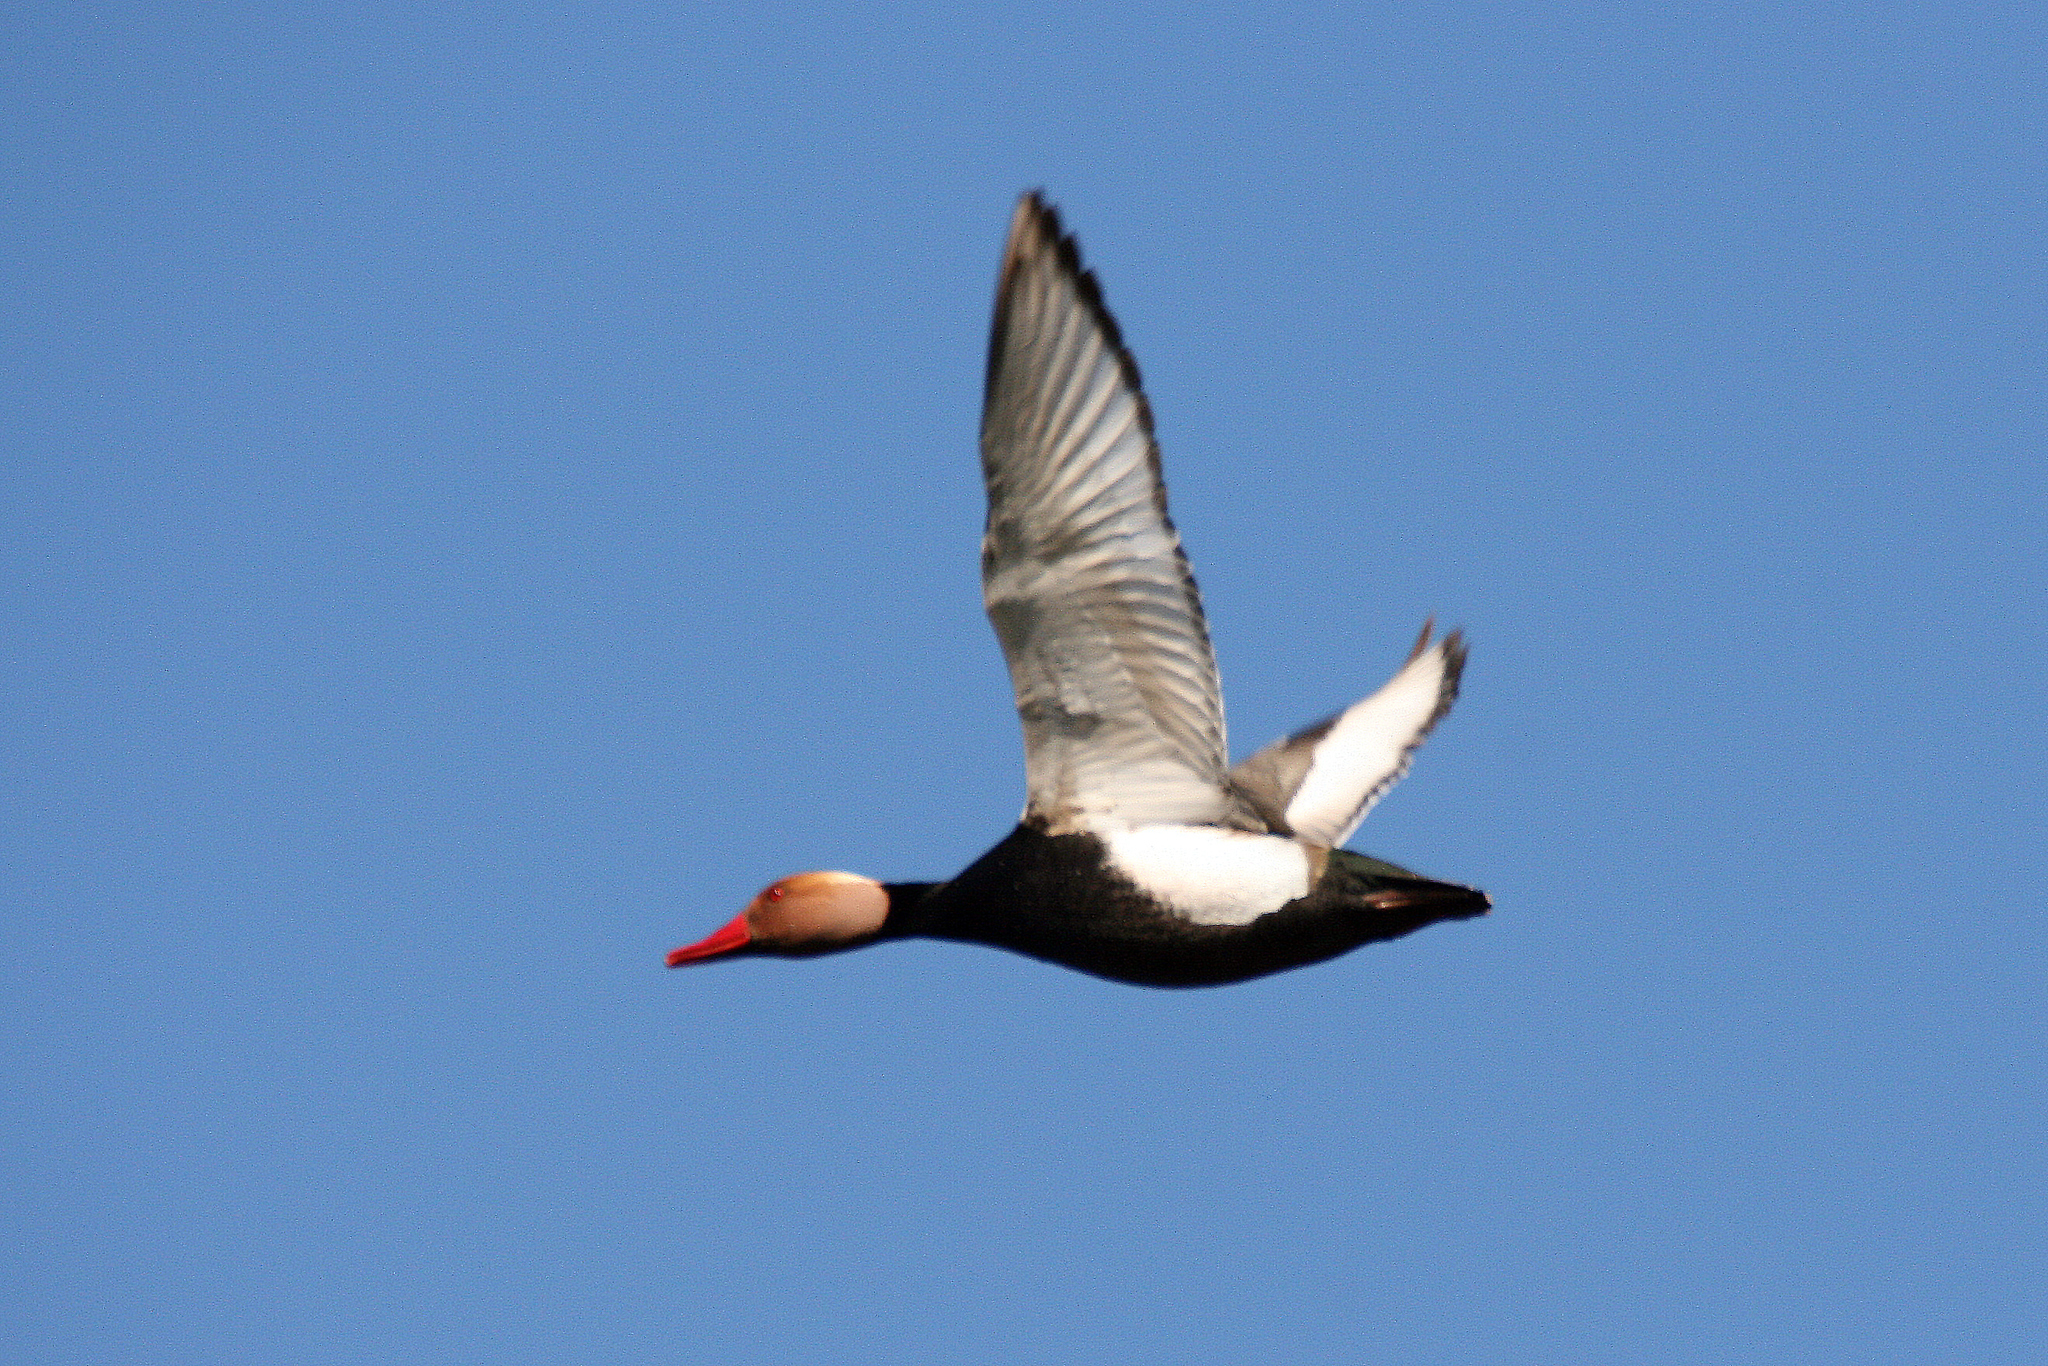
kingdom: Animalia
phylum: Chordata
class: Aves
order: Anseriformes
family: Anatidae
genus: Netta
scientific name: Netta rufina
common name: Red-crested pochard
